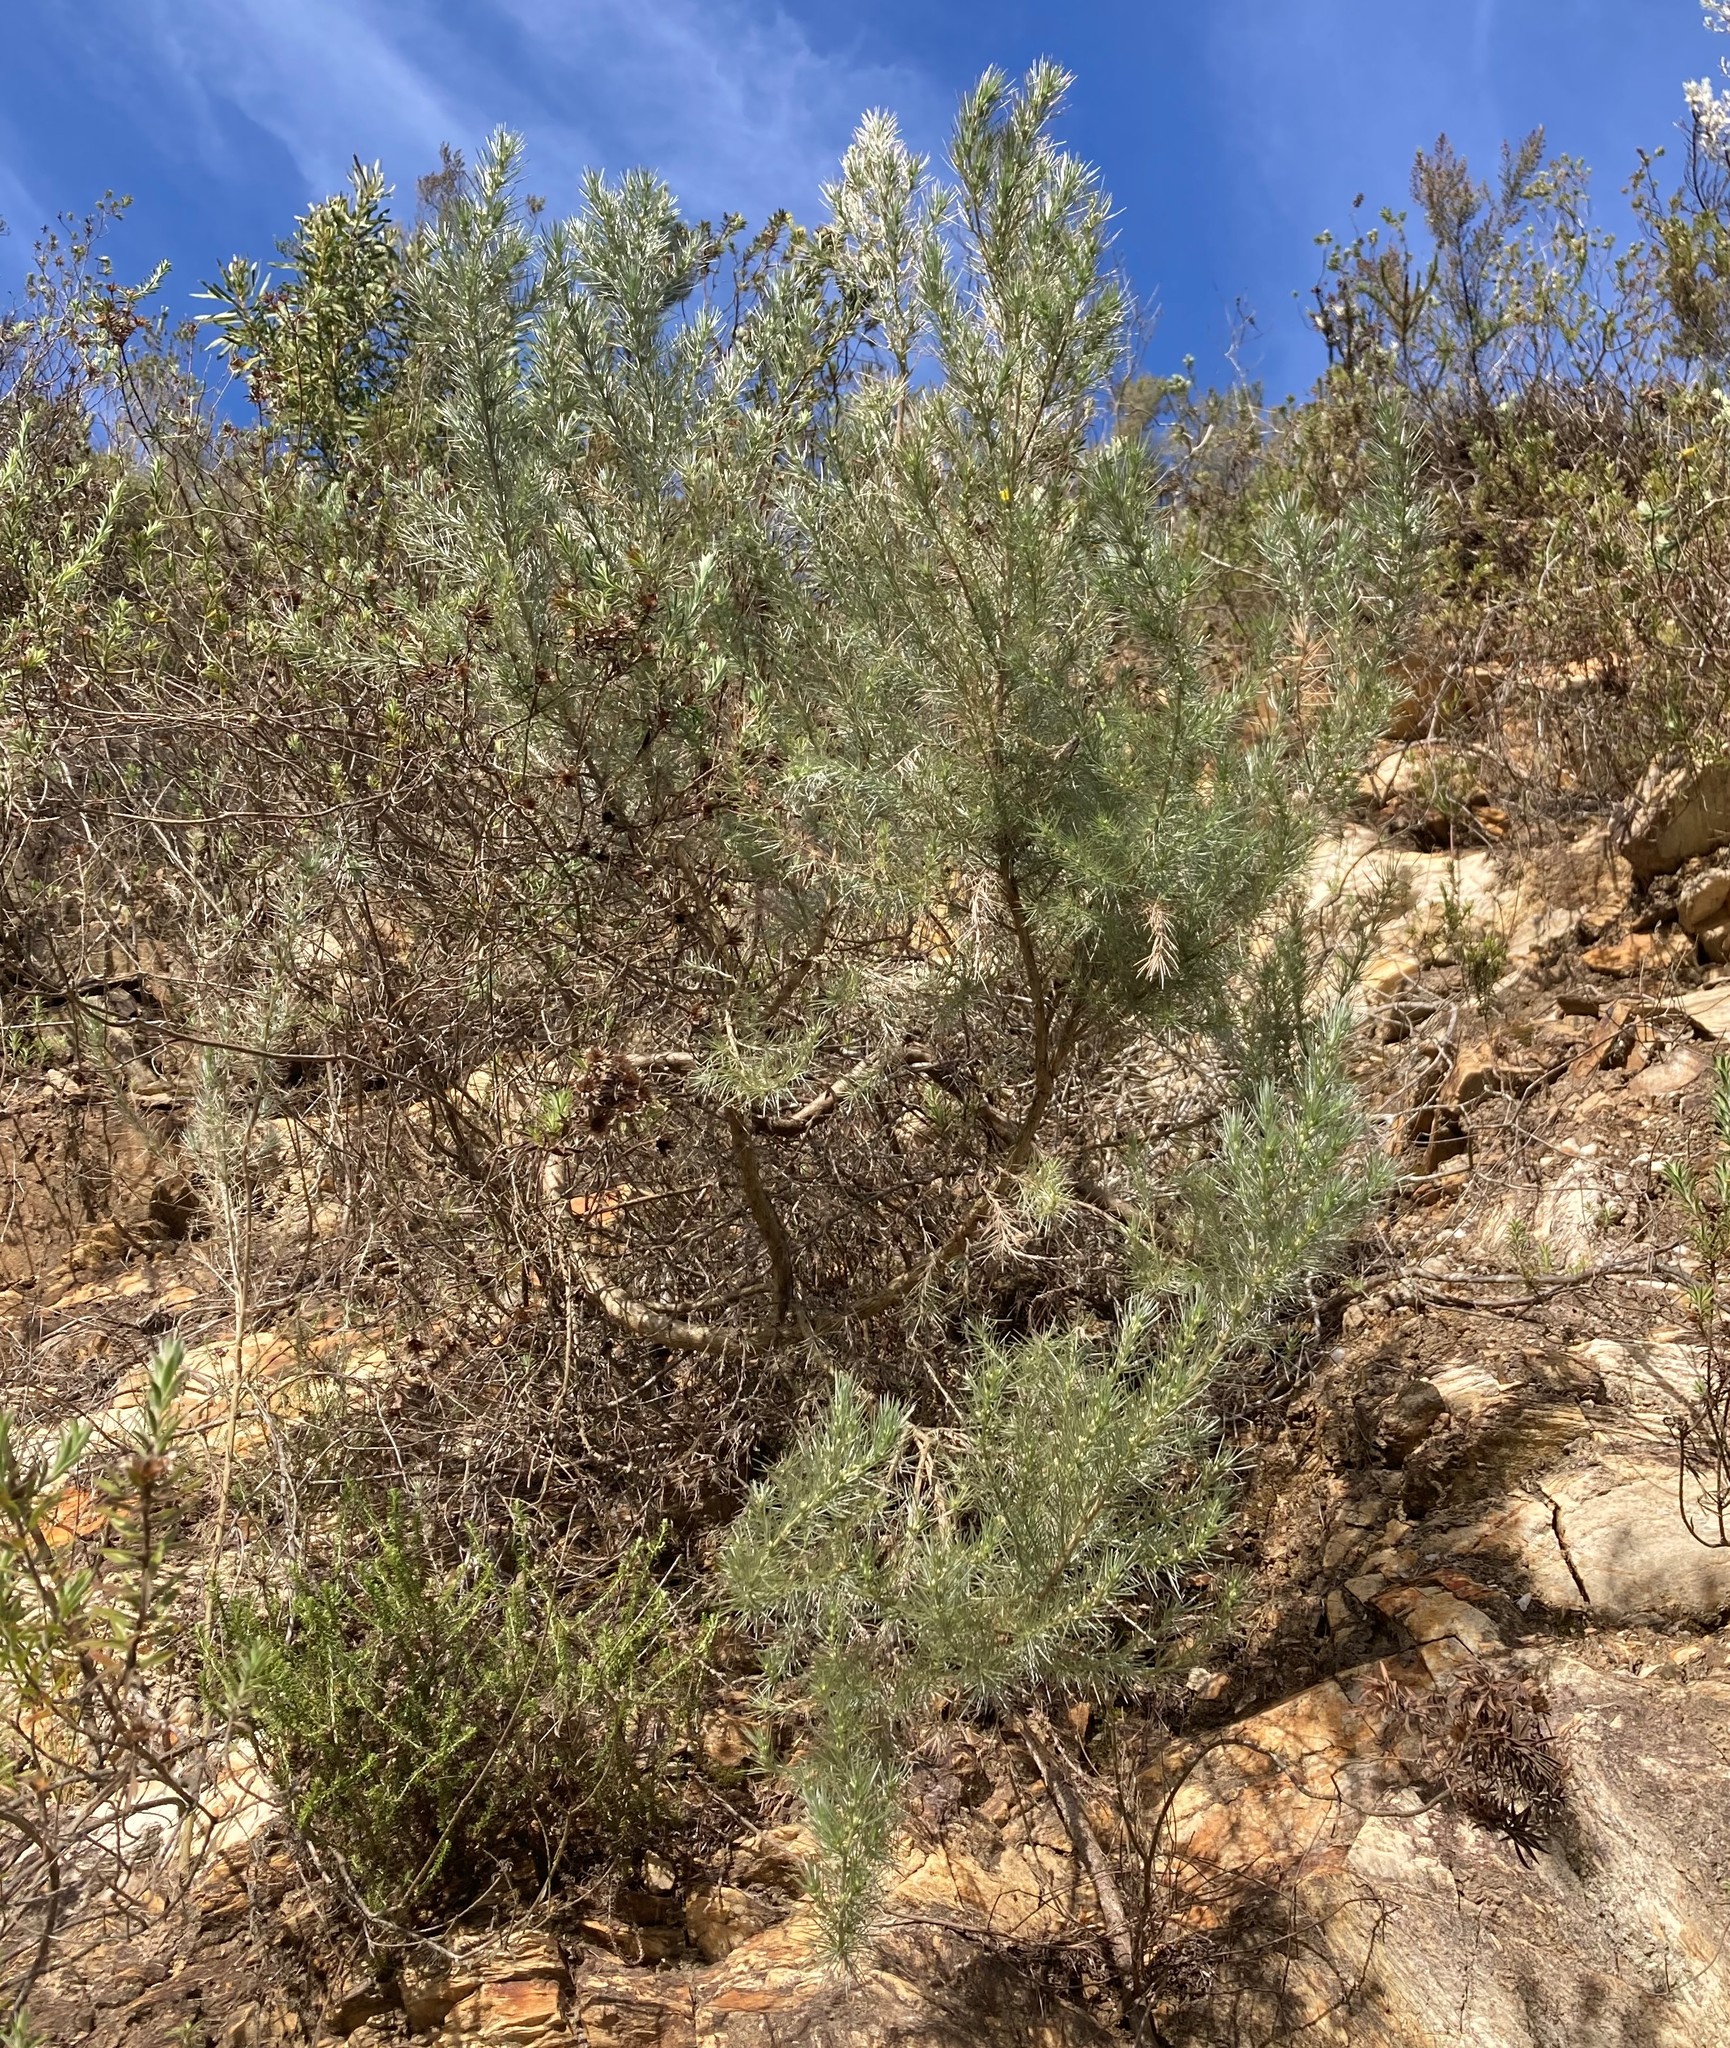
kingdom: Plantae
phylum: Tracheophyta
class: Magnoliopsida
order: Fabales
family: Fabaceae
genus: Aspalathus
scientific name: Aspalathus florifera
